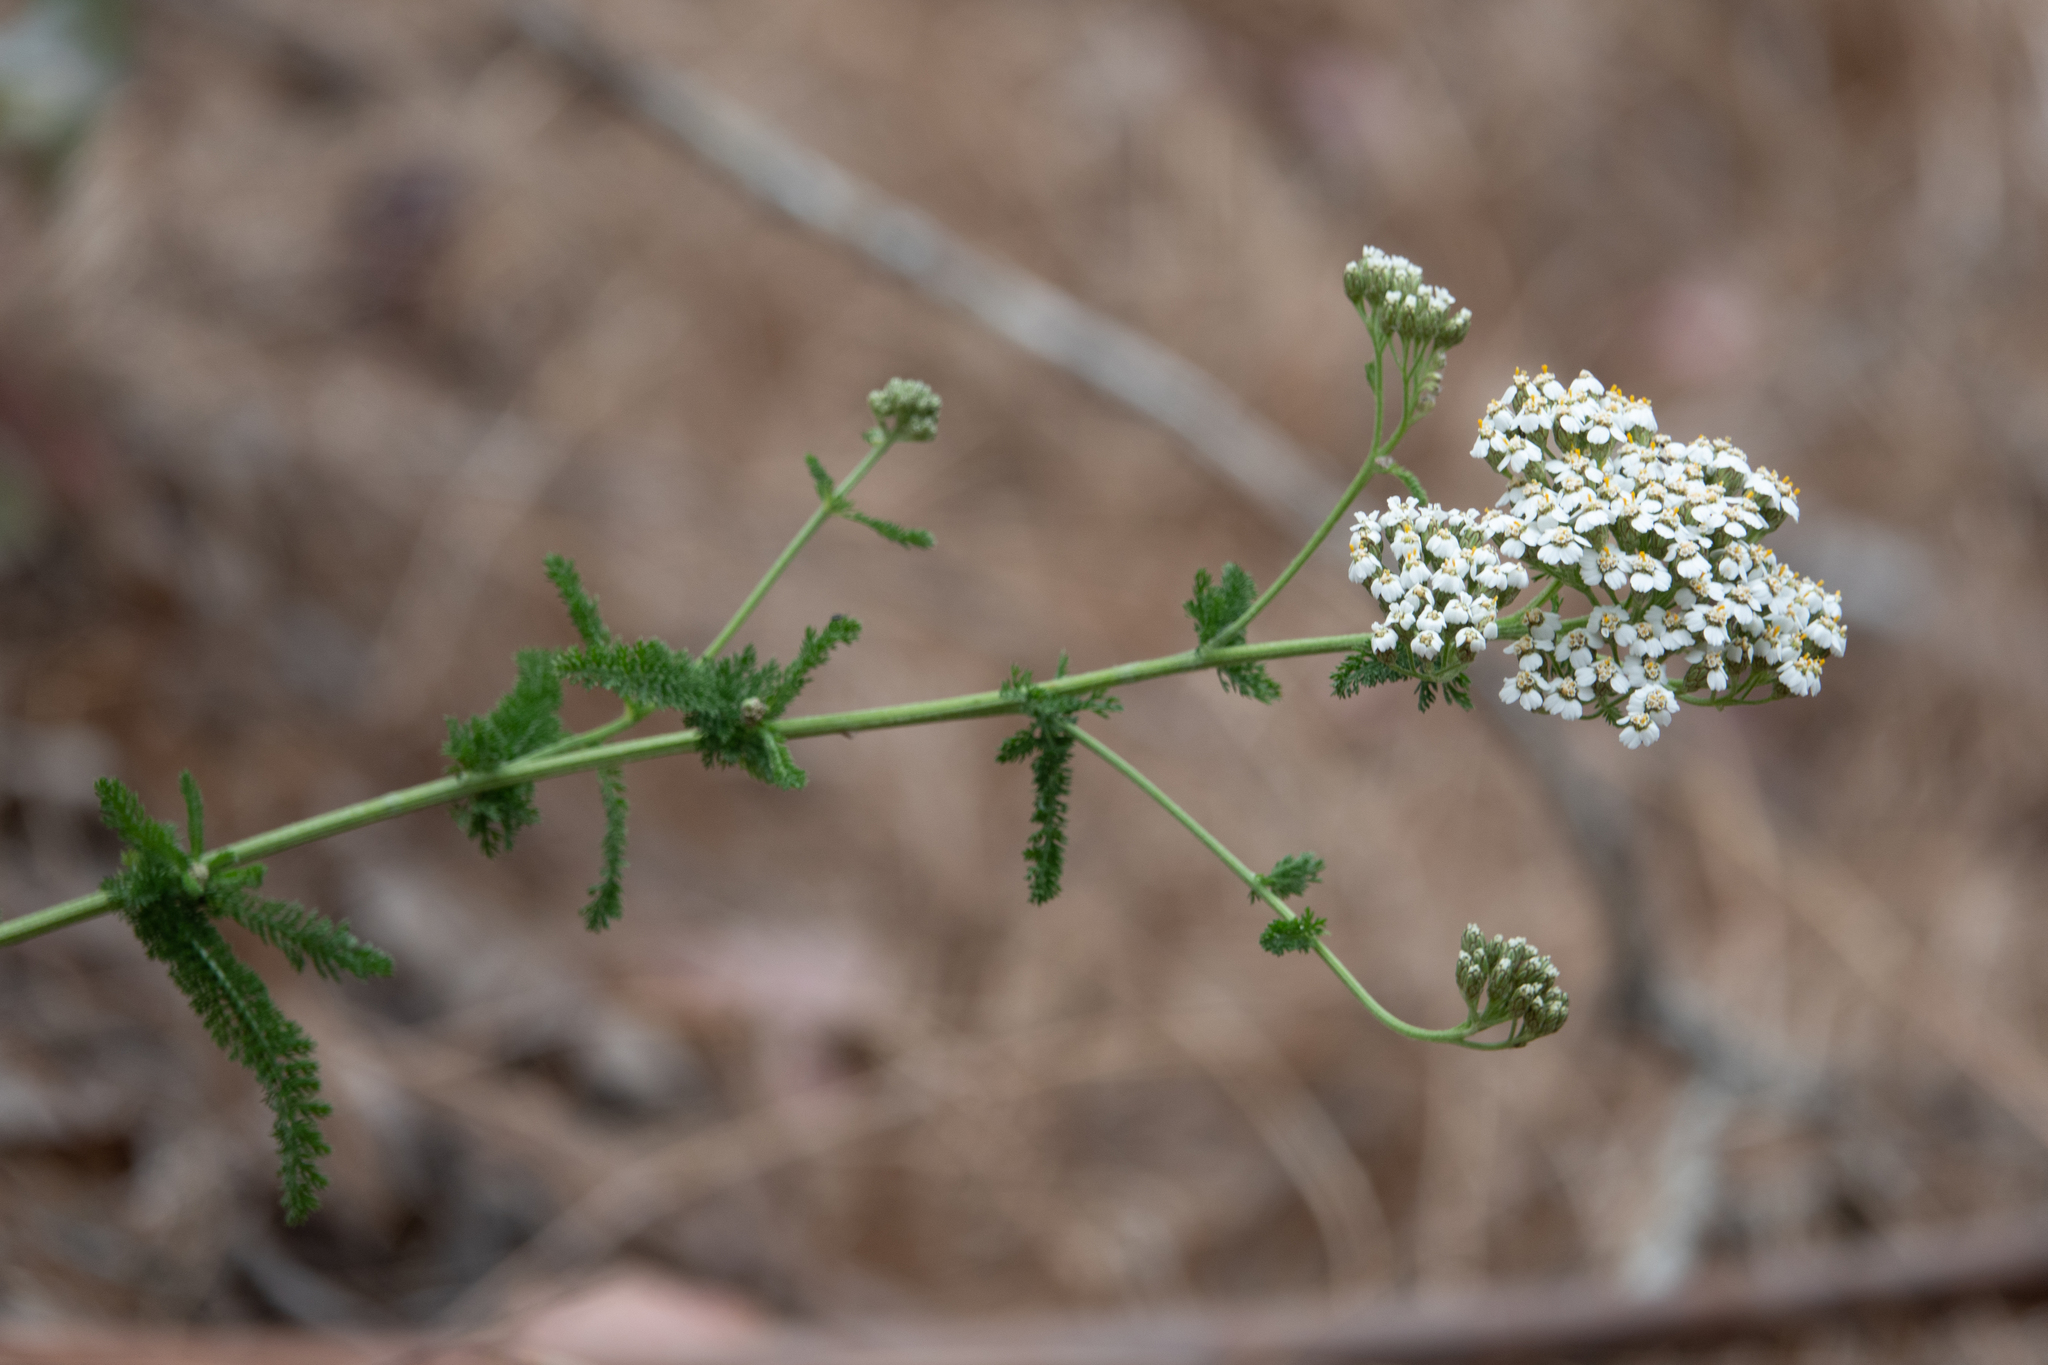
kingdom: Plantae
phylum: Tracheophyta
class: Magnoliopsida
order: Asterales
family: Asteraceae
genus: Achillea
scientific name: Achillea millefolium
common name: Yarrow
